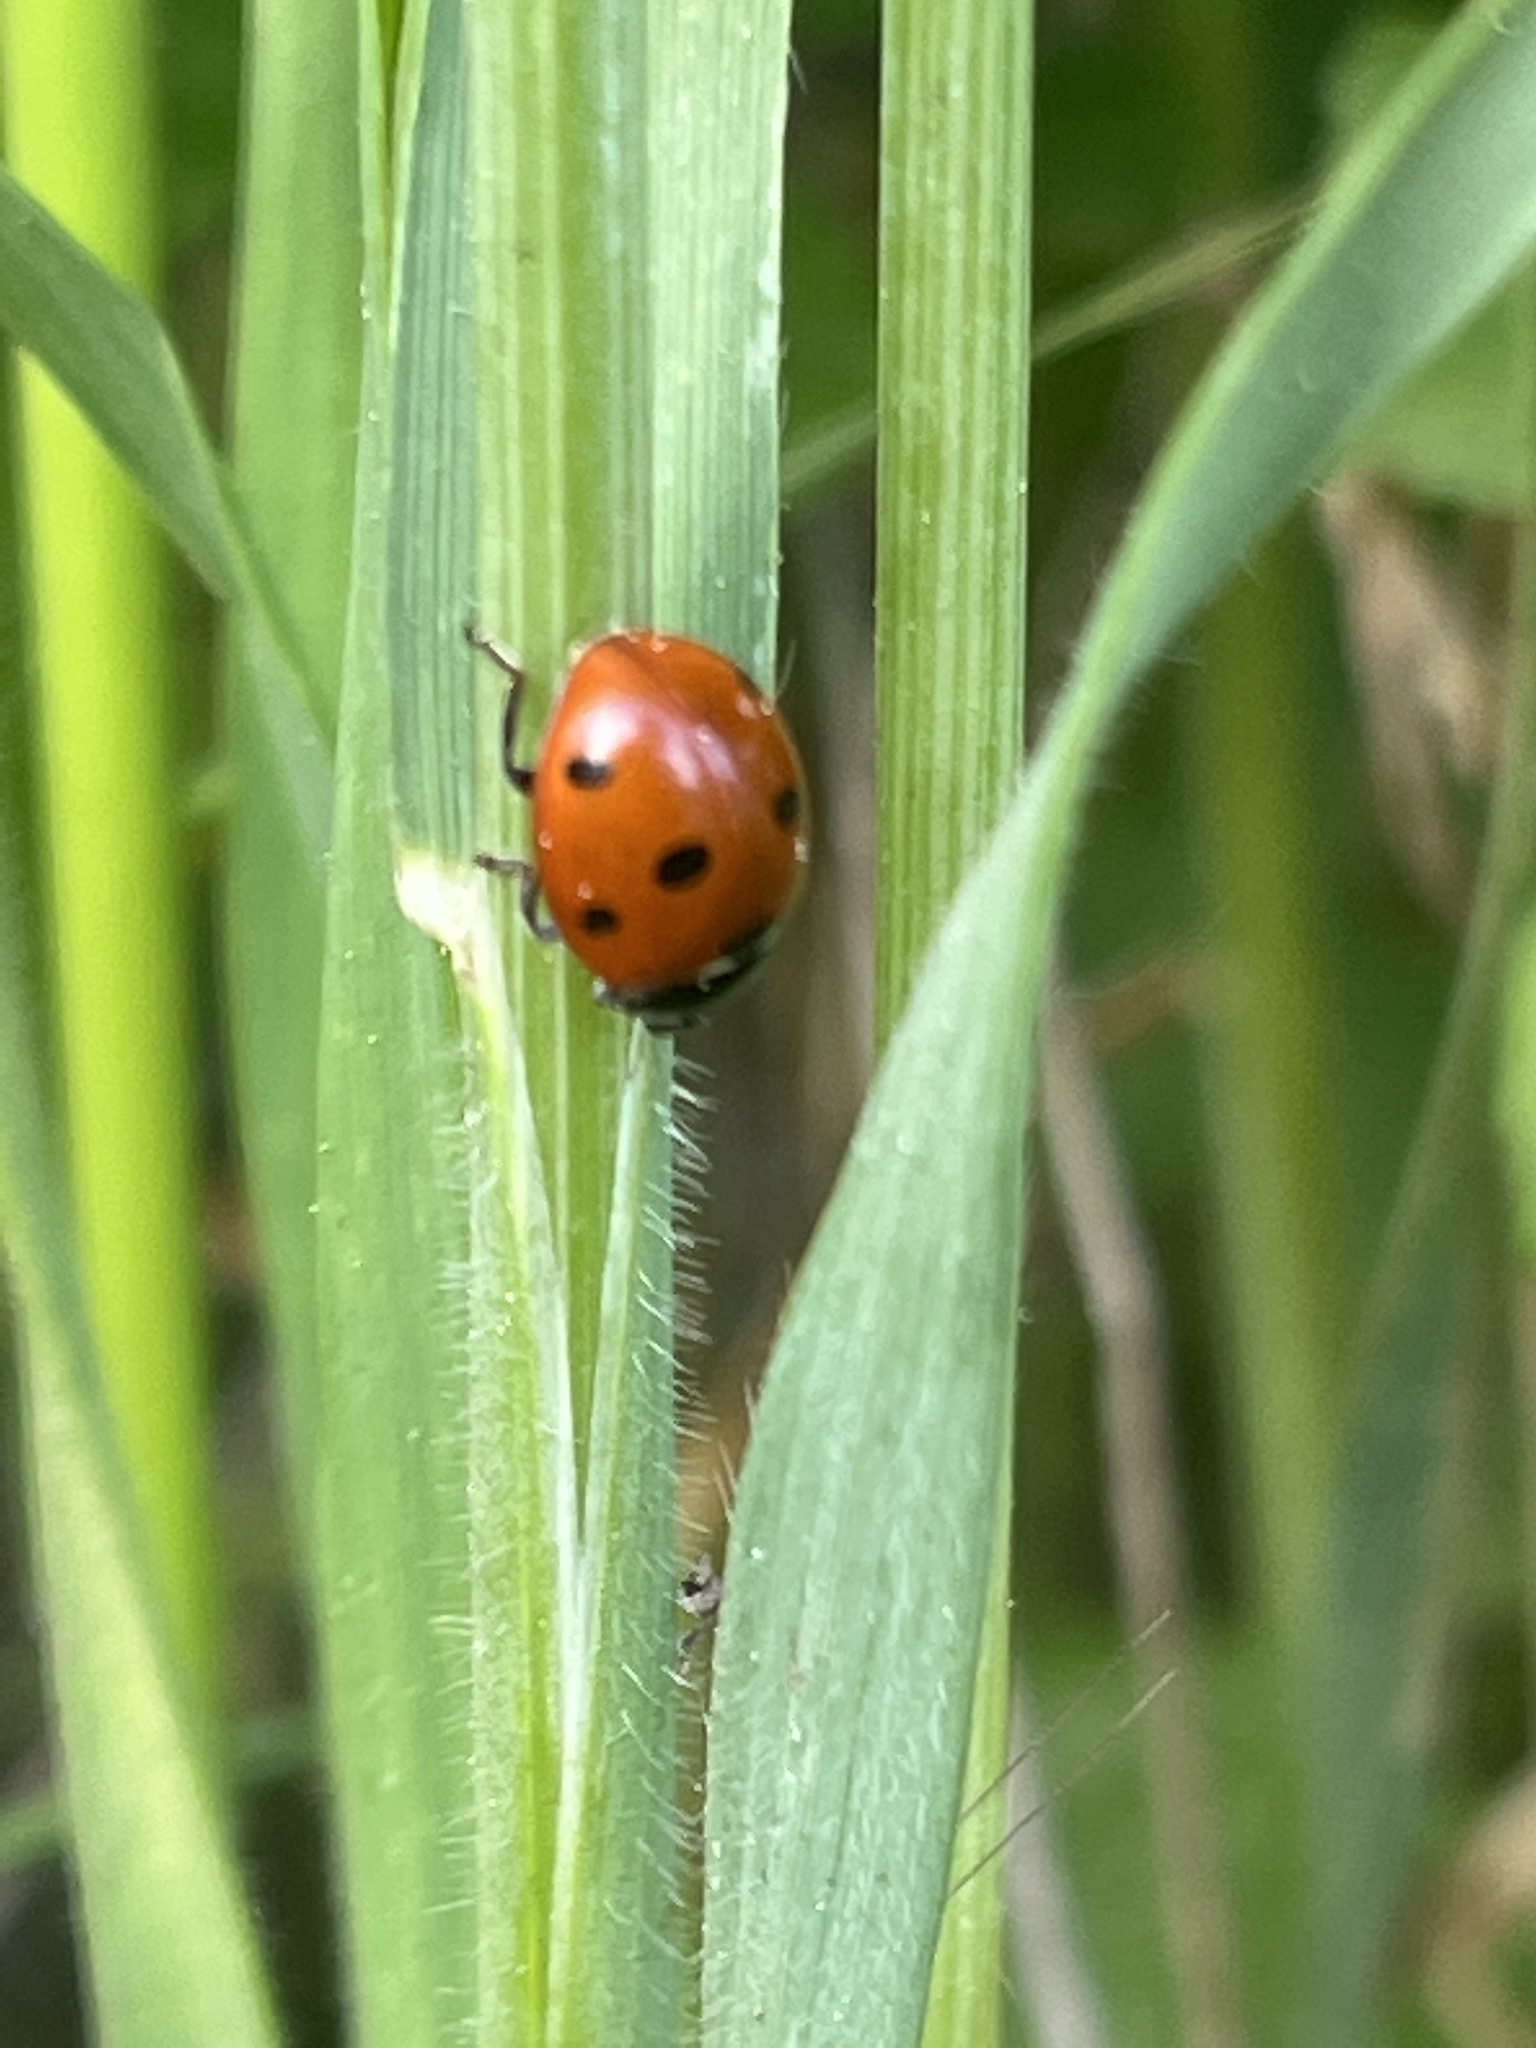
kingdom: Animalia
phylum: Arthropoda
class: Insecta
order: Coleoptera
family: Coccinellidae
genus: Coccinella
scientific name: Coccinella septempunctata
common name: Sevenspotted lady beetle
